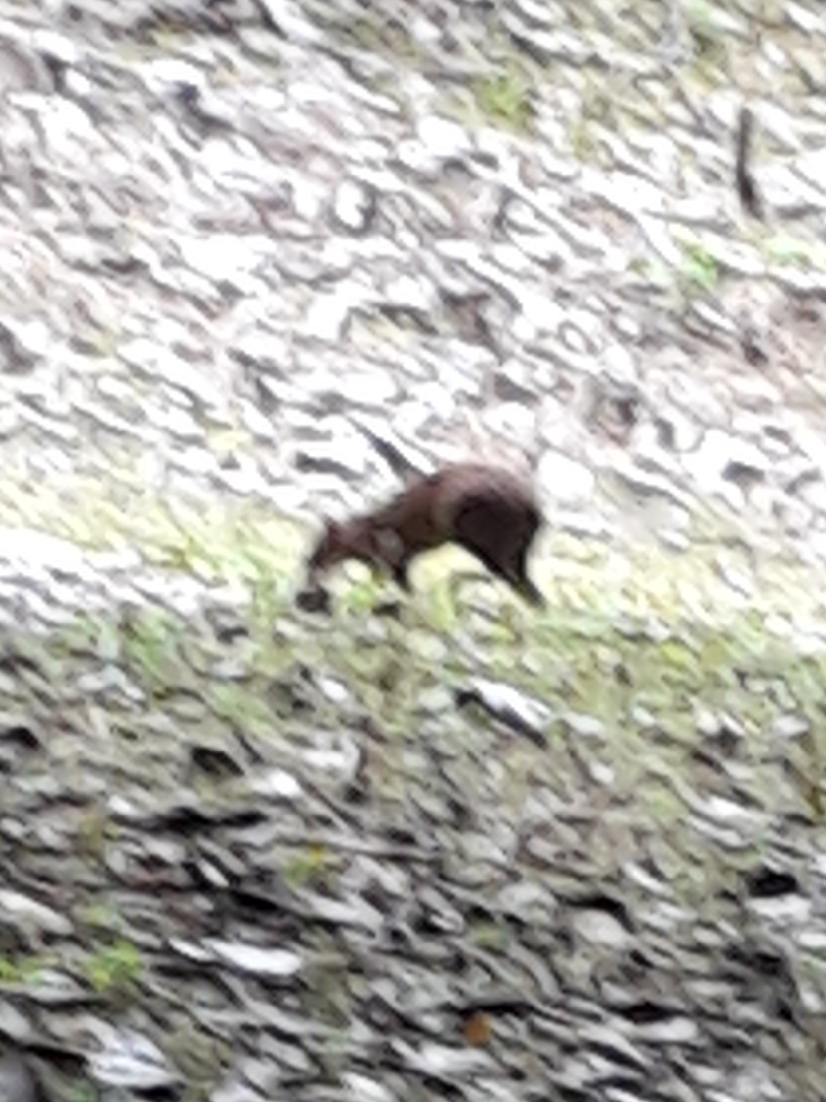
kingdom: Animalia
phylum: Chordata
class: Mammalia
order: Rodentia
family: Dasyproctidae
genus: Dasyprocta
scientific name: Dasyprocta punctata
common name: Central american agouti
